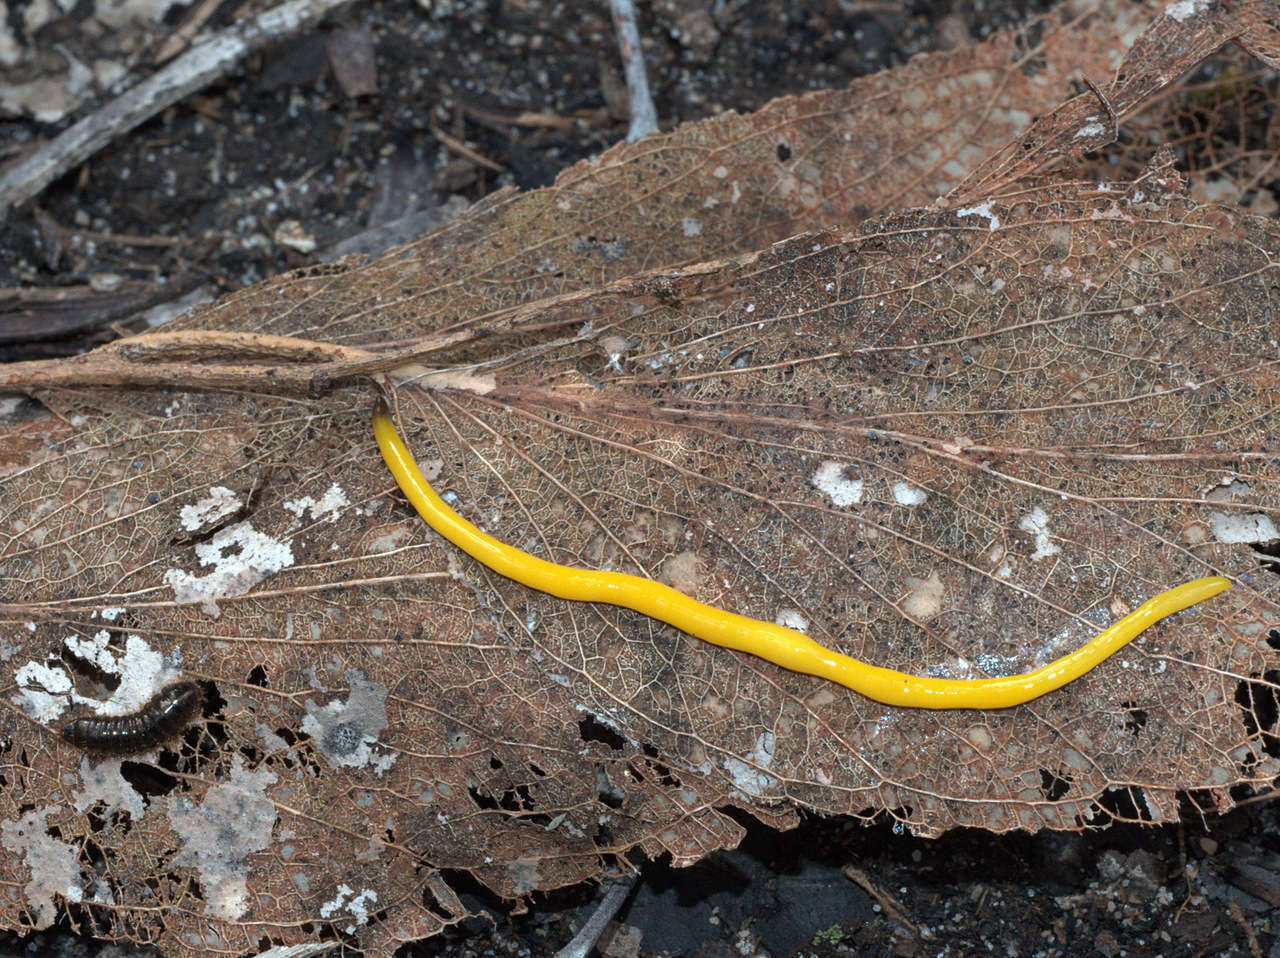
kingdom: Animalia
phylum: Platyhelminthes
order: Tricladida
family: Geoplanidae
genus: Fletchamia
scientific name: Fletchamia sugdeni
